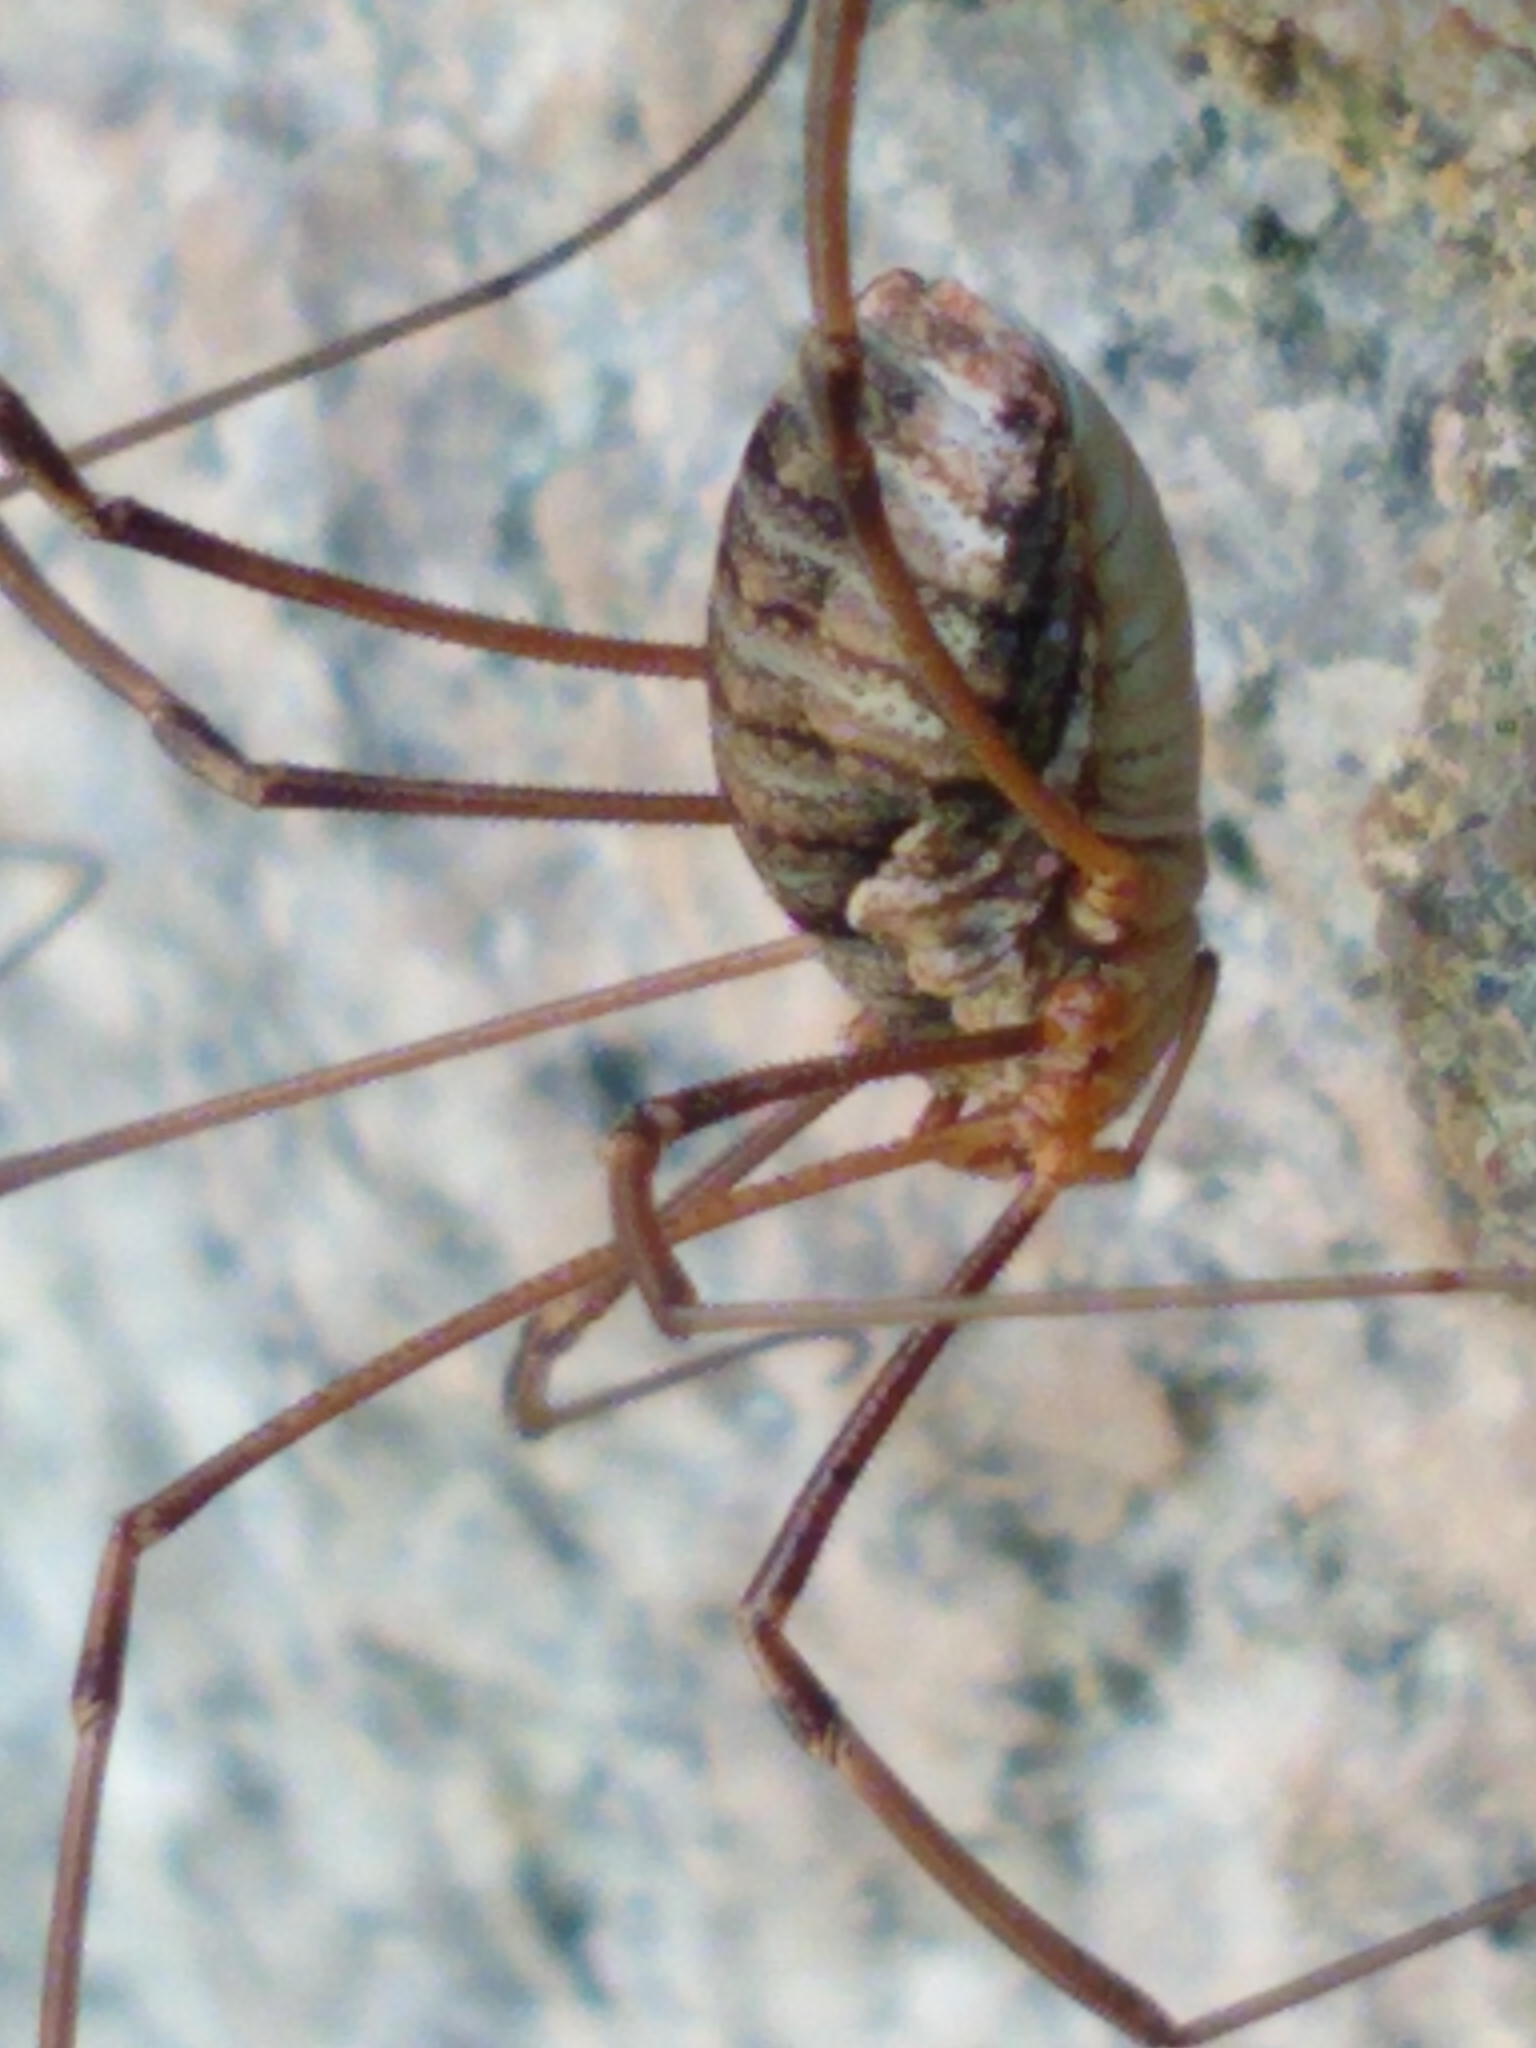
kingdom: Animalia
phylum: Arthropoda
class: Arachnida
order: Opiliones
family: Phalangiidae
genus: Phalangium
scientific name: Phalangium opilio
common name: Daddy longleg
